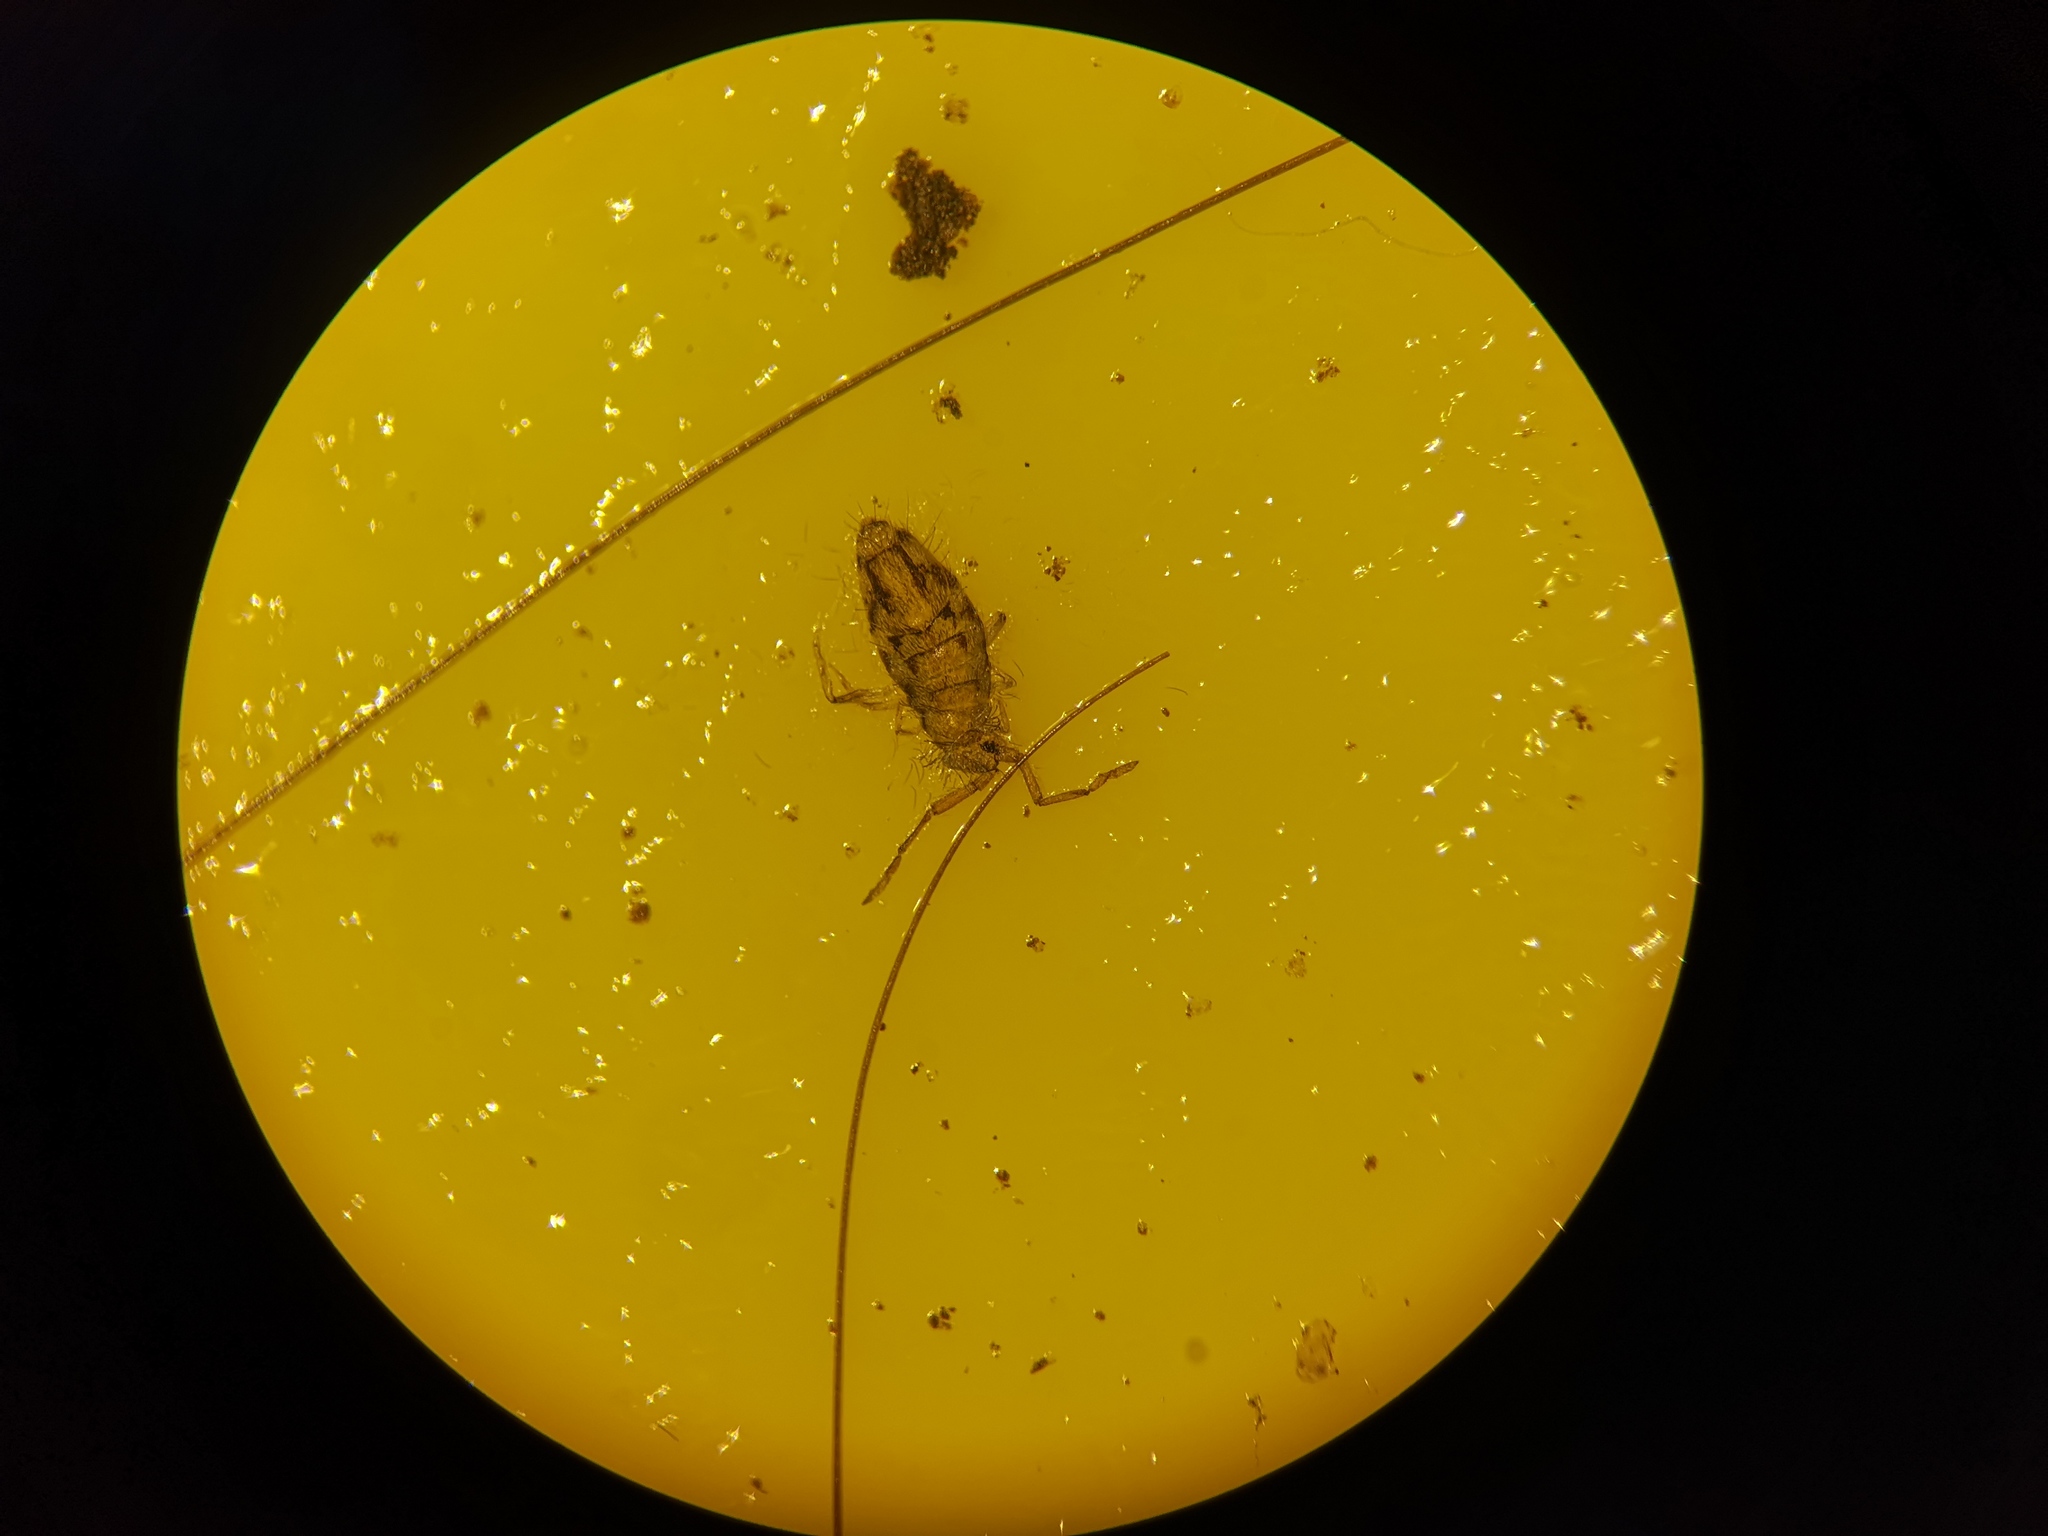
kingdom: Animalia
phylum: Arthropoda
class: Collembola
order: Entomobryomorpha
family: Entomobryidae
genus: Entomobrya
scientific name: Entomobrya nivalis
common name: Cosmopolitan springtail
